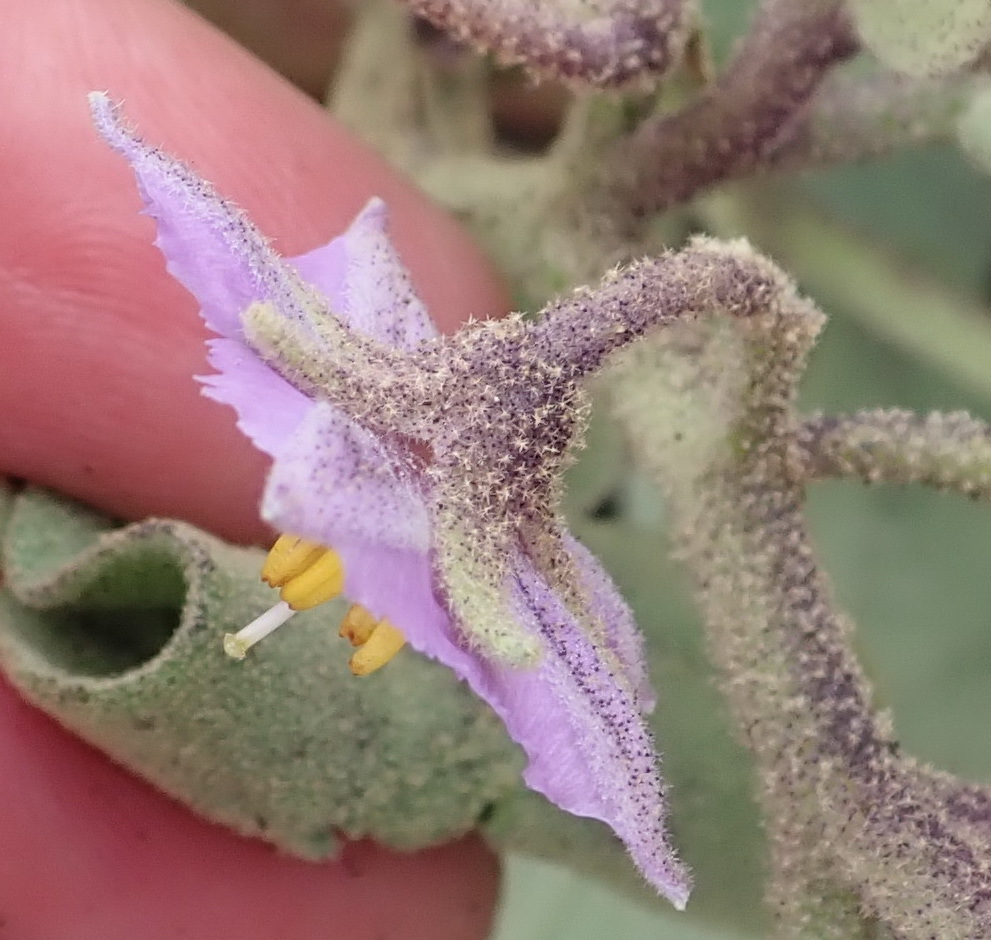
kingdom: Plantae
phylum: Tracheophyta
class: Magnoliopsida
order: Solanales
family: Solanaceae
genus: Solanum
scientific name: Solanum tomentosum
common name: Wild aubergine
